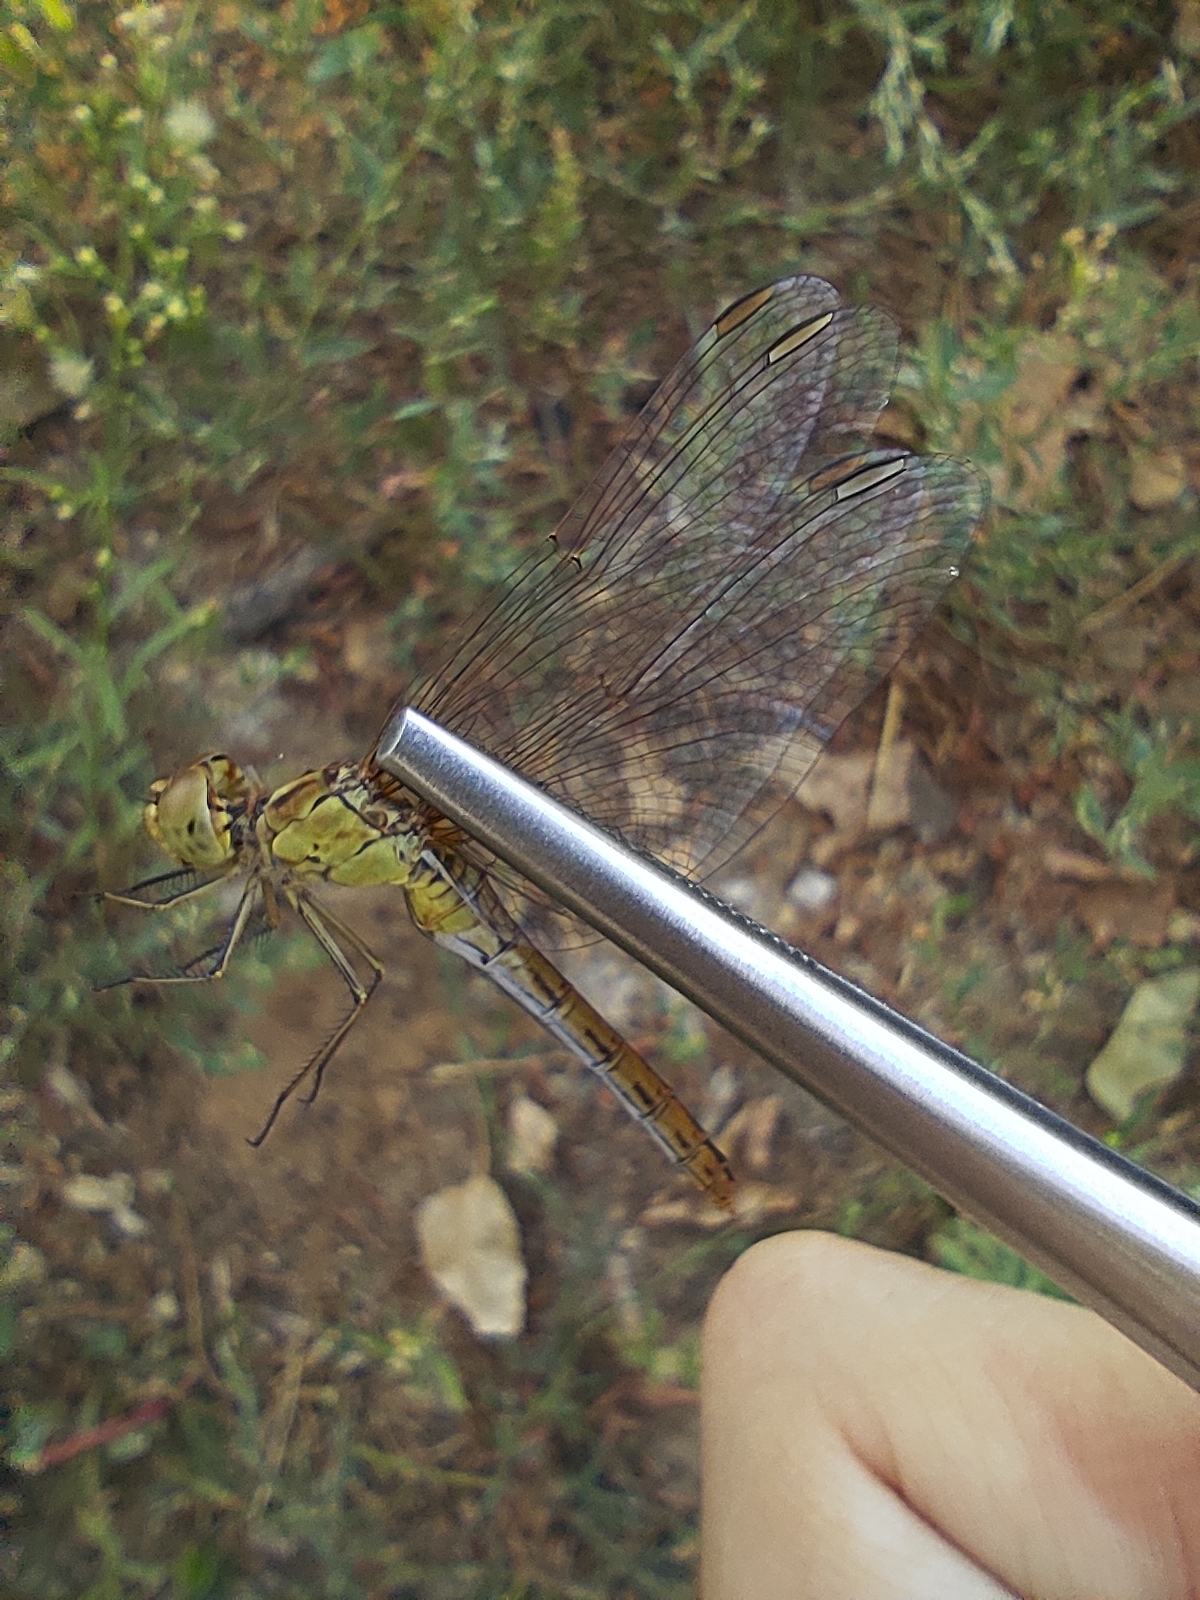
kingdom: Animalia
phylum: Arthropoda
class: Insecta
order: Odonata
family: Libellulidae
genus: Sympetrum
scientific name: Sympetrum meridionale
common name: Southern darter
